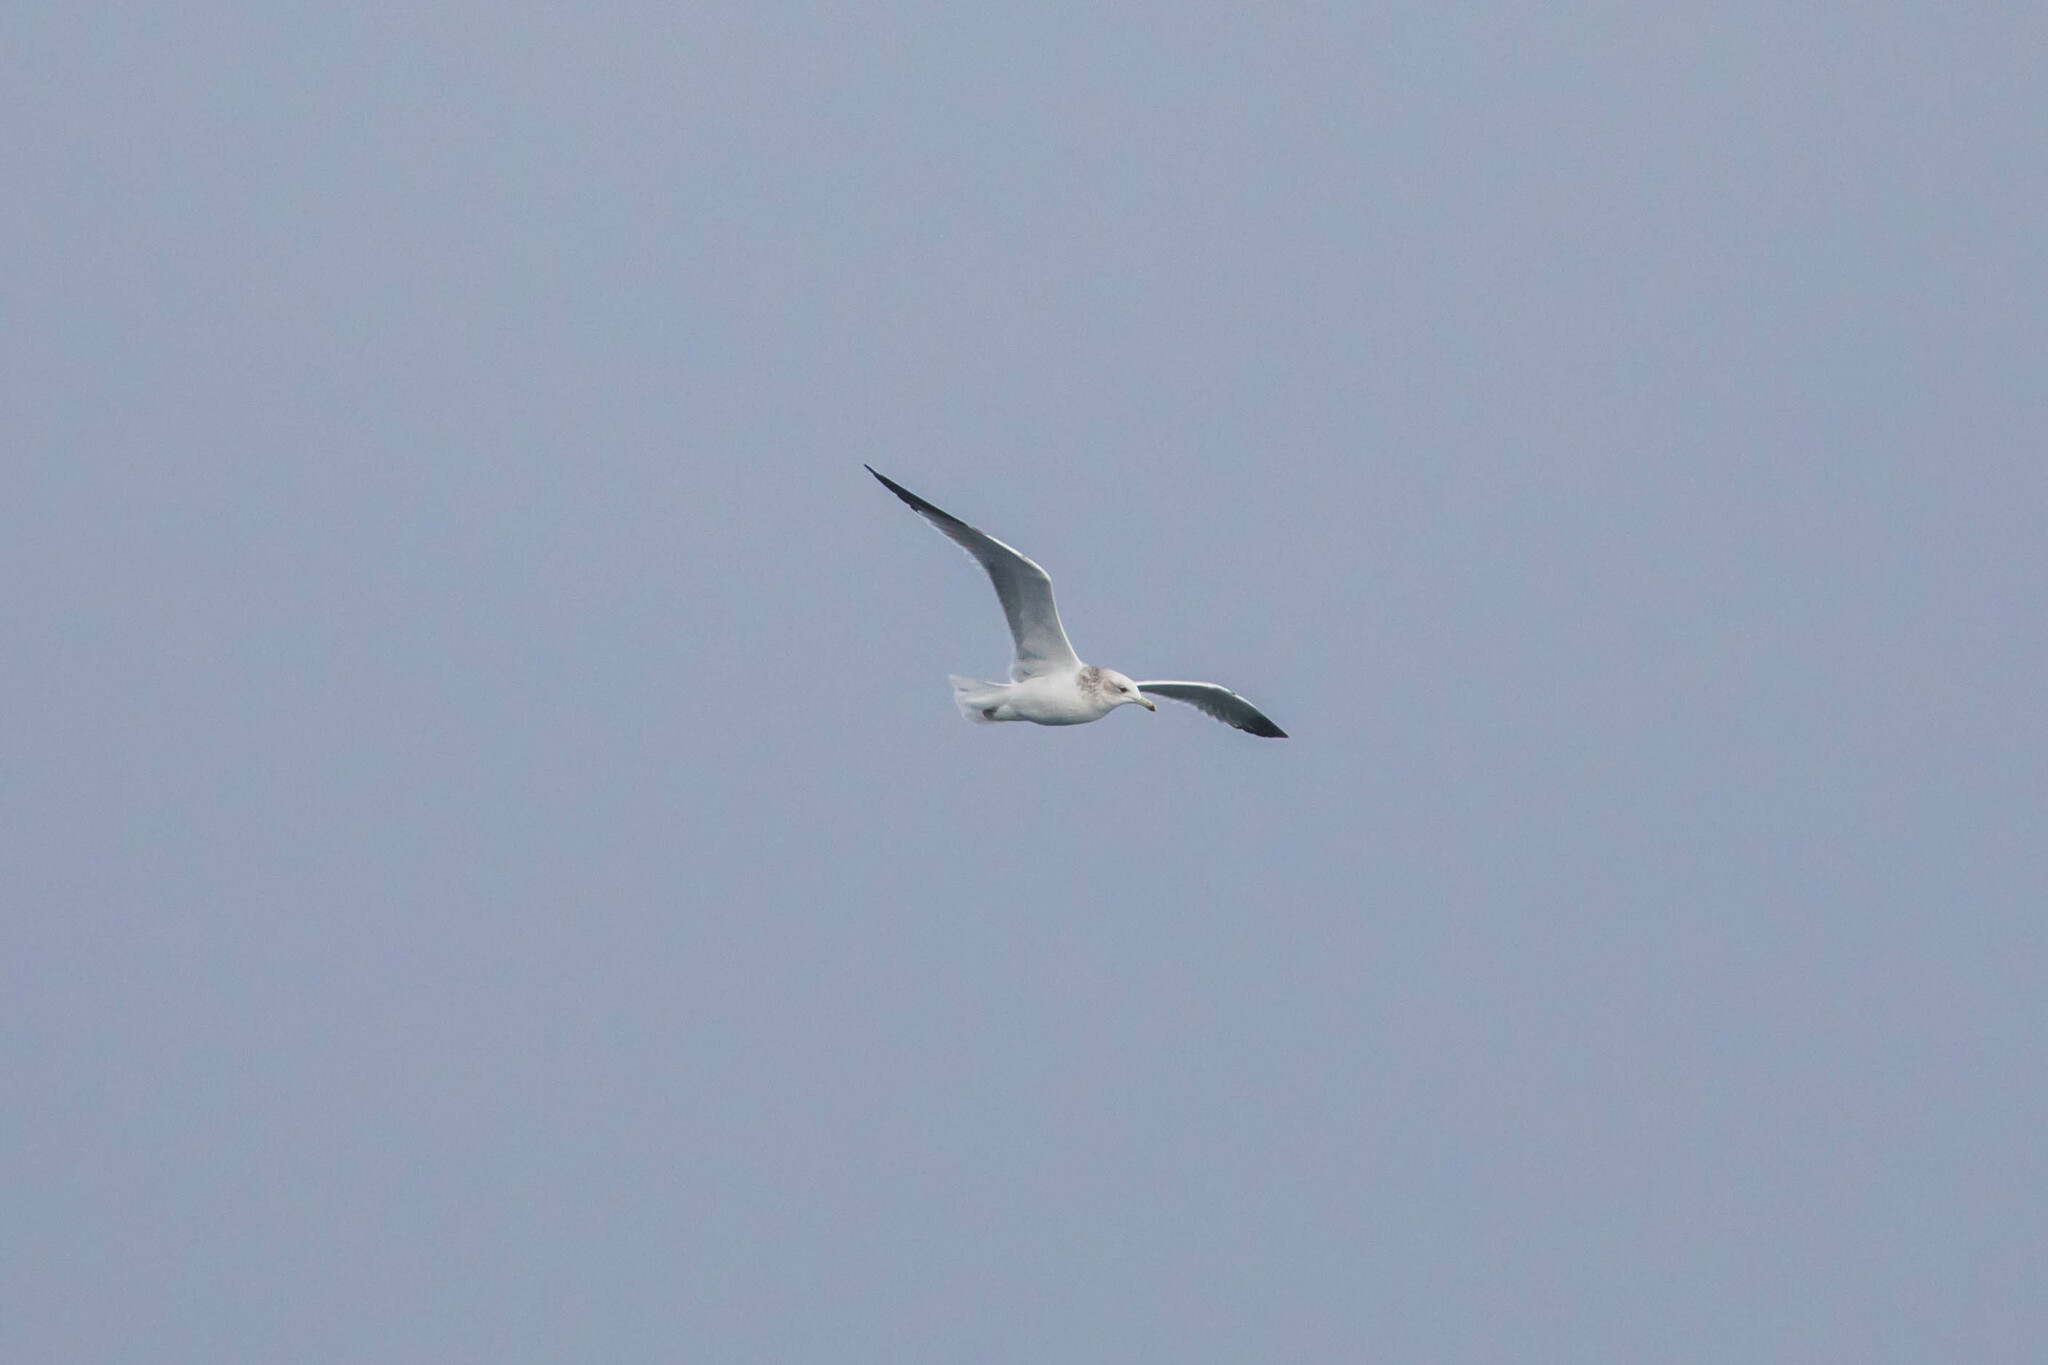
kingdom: Animalia
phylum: Chordata
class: Aves
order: Charadriiformes
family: Laridae
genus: Larus
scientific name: Larus californicus
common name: California gull
